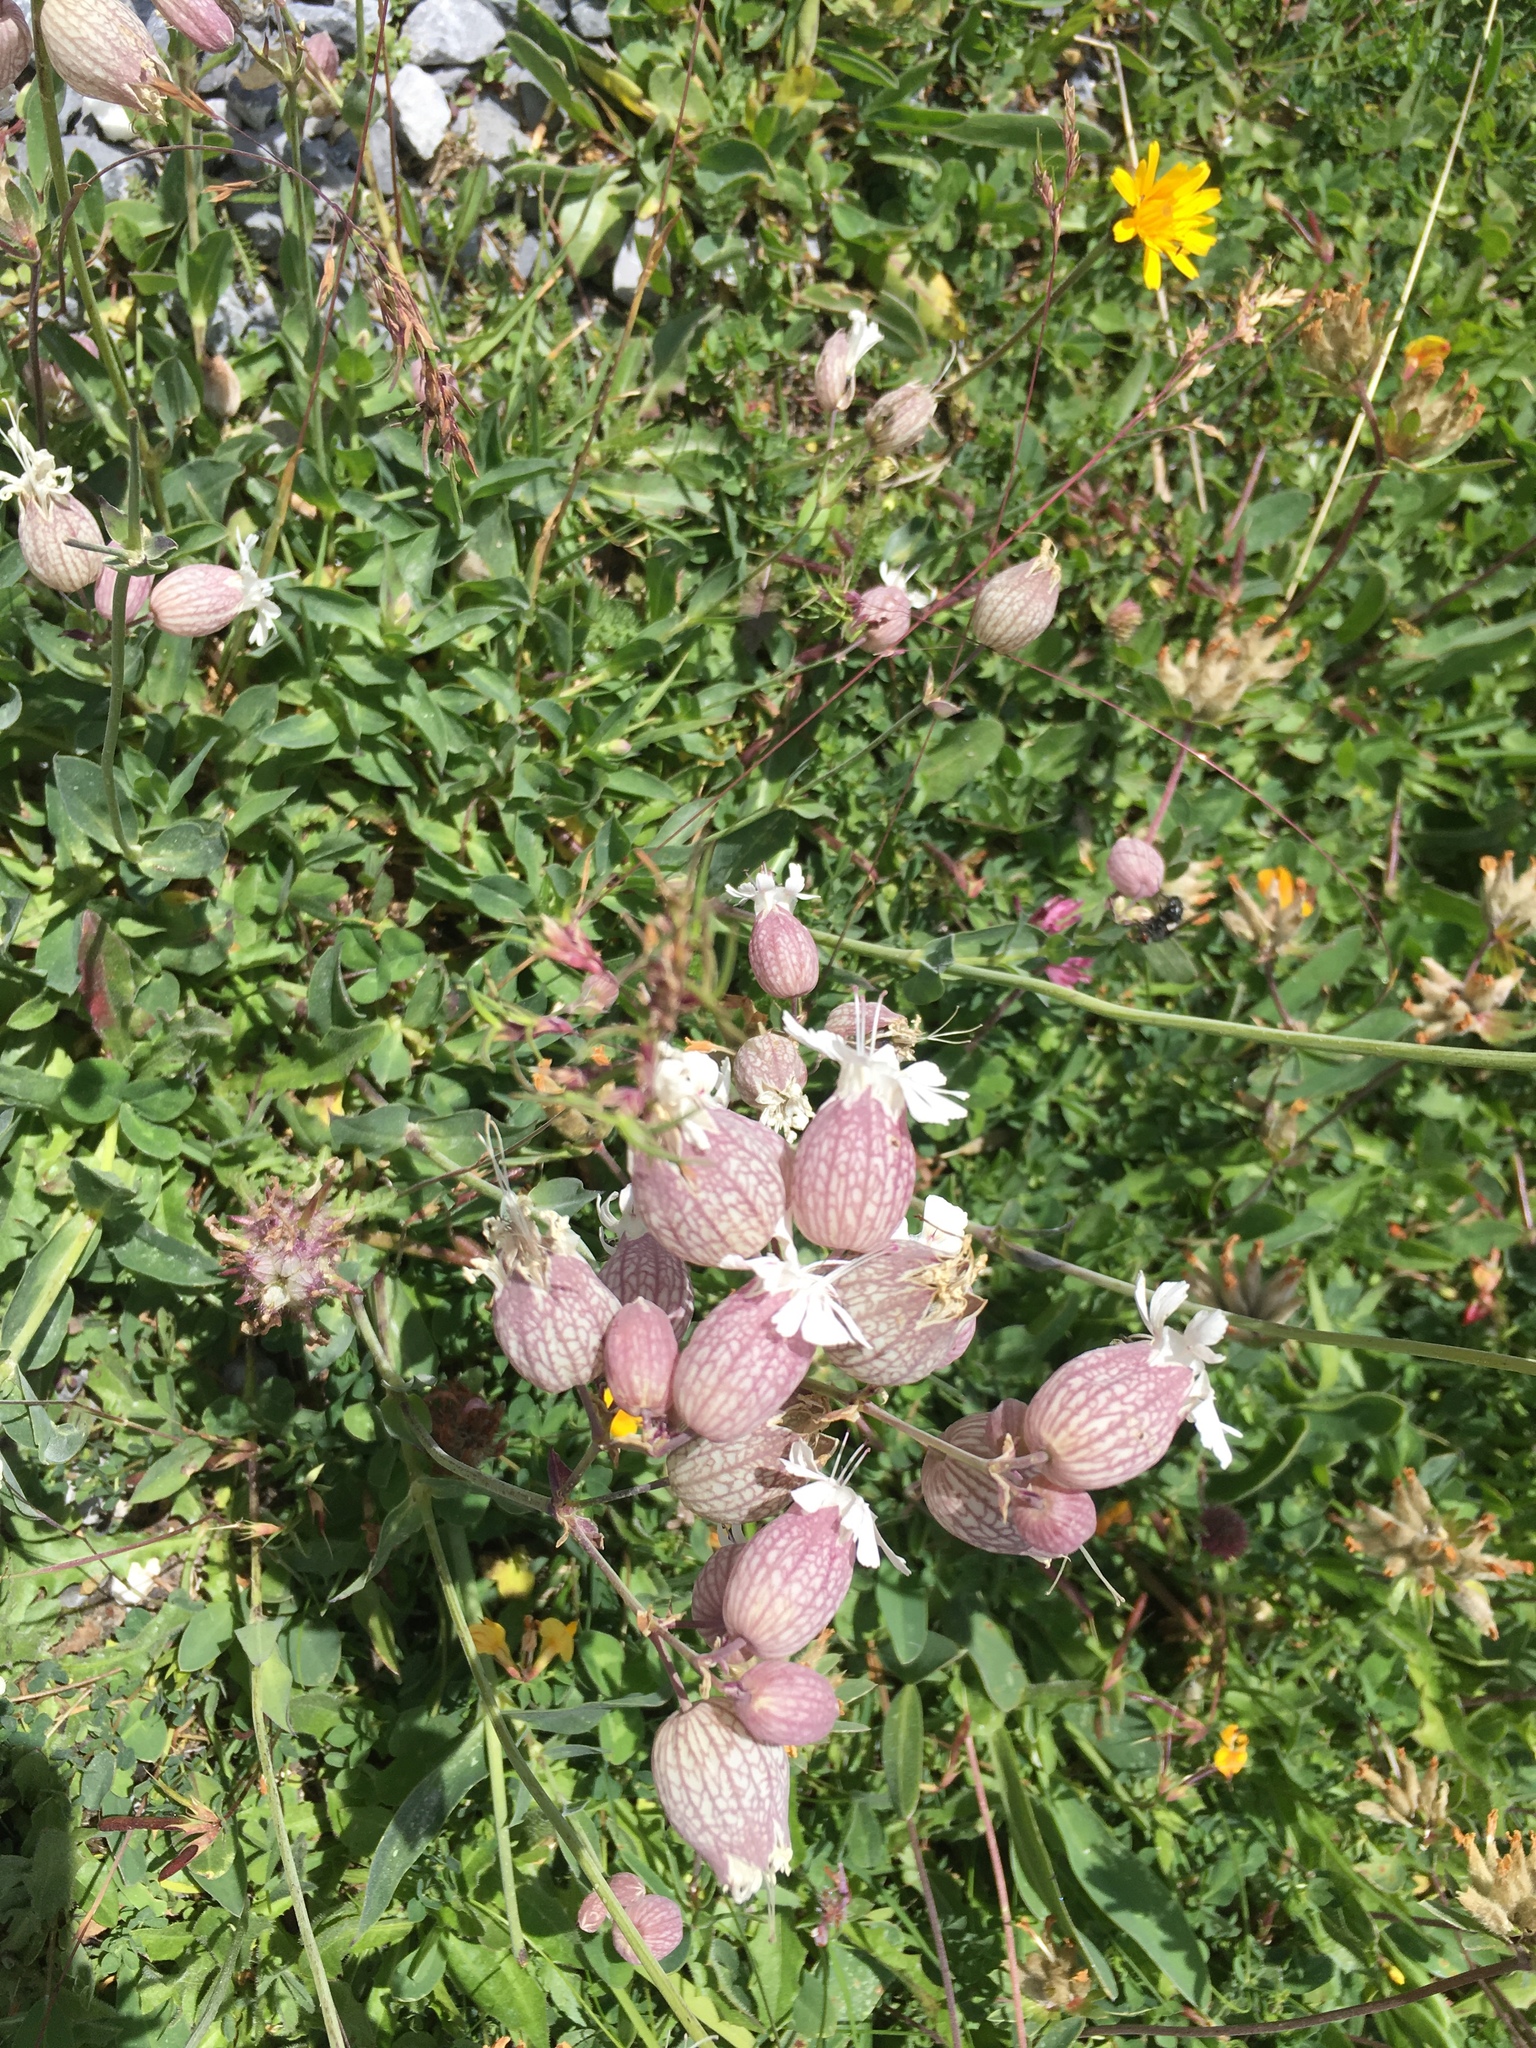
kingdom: Plantae
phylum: Tracheophyta
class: Magnoliopsida
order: Caryophyllales
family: Caryophyllaceae
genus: Silene
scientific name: Silene vulgaris
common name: Bladder campion
